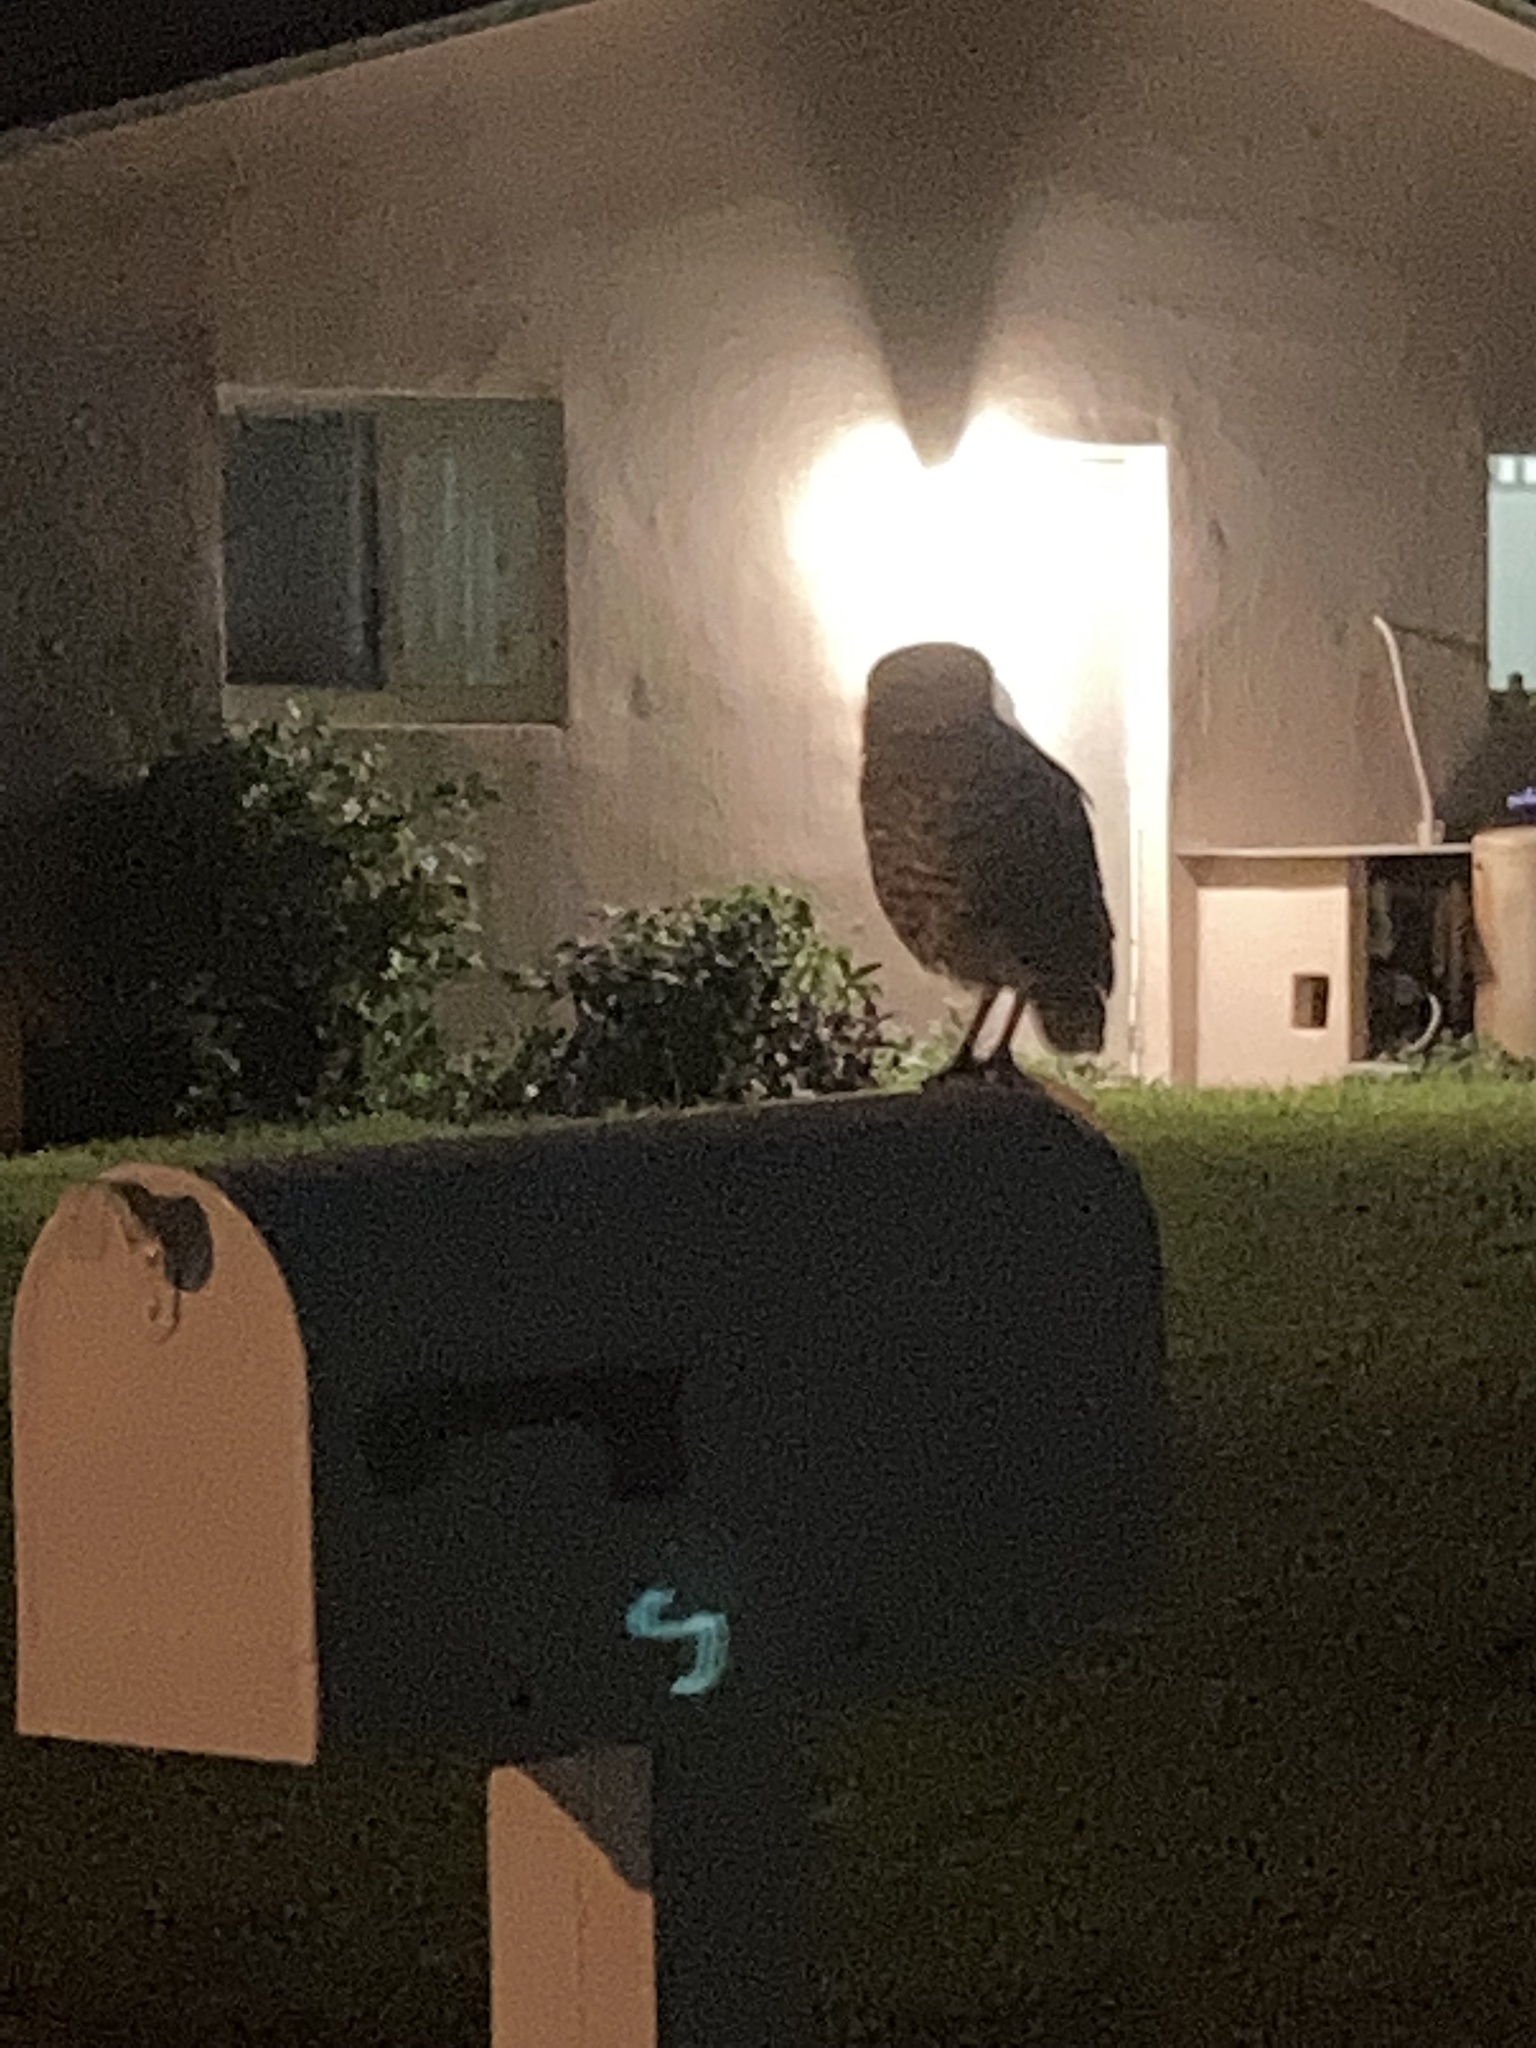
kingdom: Animalia
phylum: Chordata
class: Aves
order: Strigiformes
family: Strigidae
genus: Athene
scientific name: Athene cunicularia
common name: Burrowing owl
